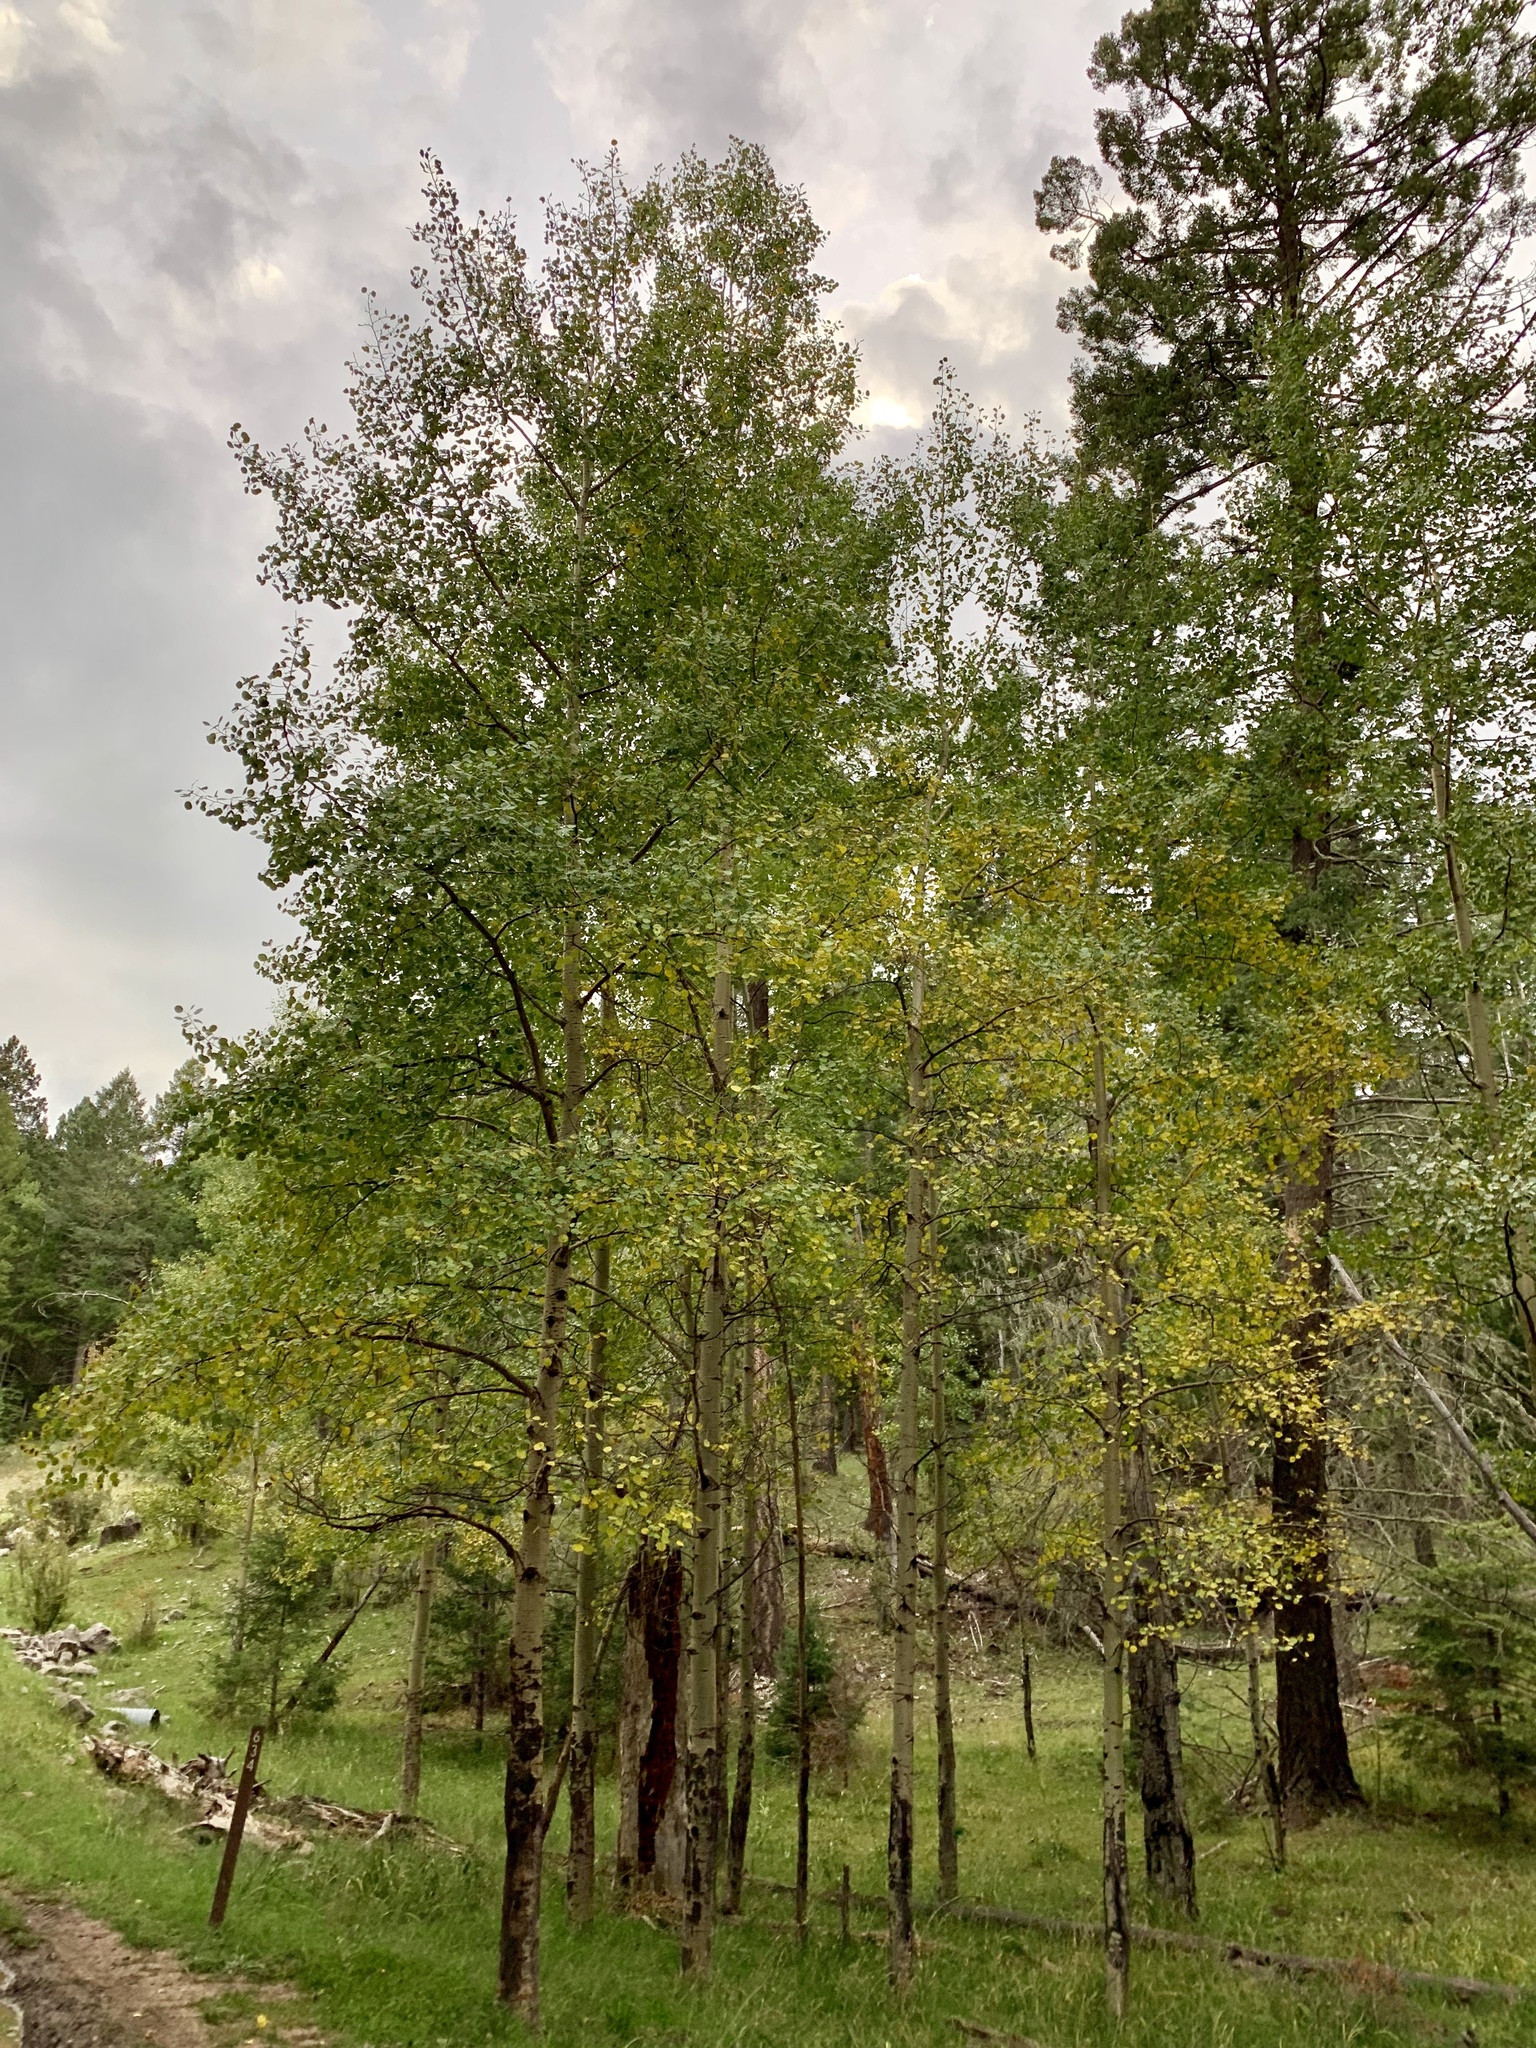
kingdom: Plantae
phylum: Tracheophyta
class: Magnoliopsida
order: Malpighiales
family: Salicaceae
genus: Populus
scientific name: Populus tremuloides
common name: Quaking aspen
